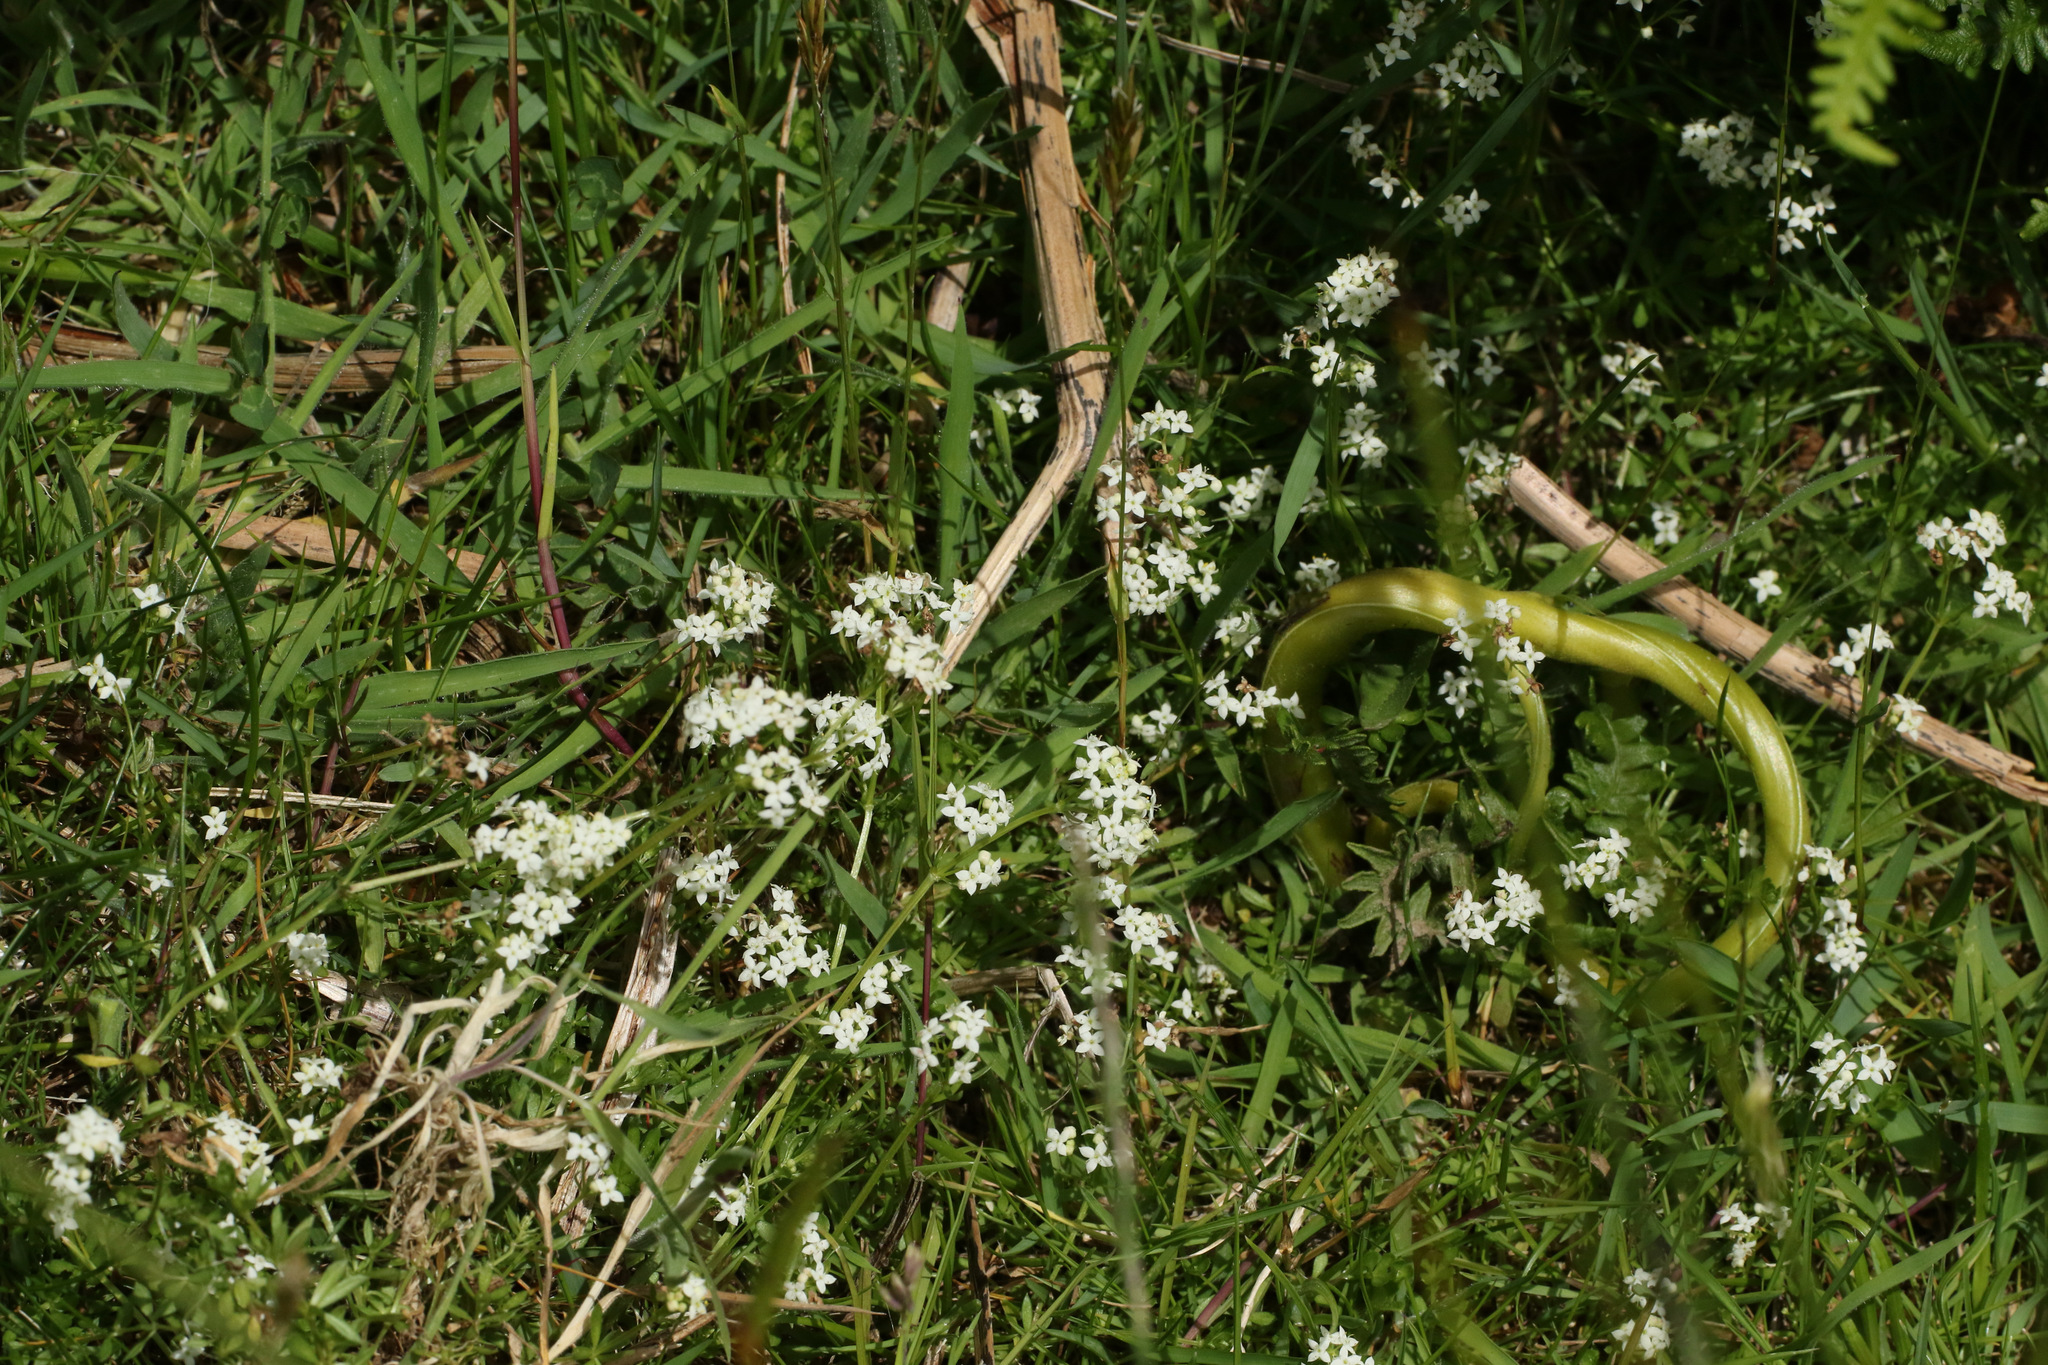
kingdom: Plantae
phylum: Tracheophyta
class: Magnoliopsida
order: Gentianales
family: Rubiaceae
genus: Galium
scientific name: Galium saxatile
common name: Heath bedstraw
